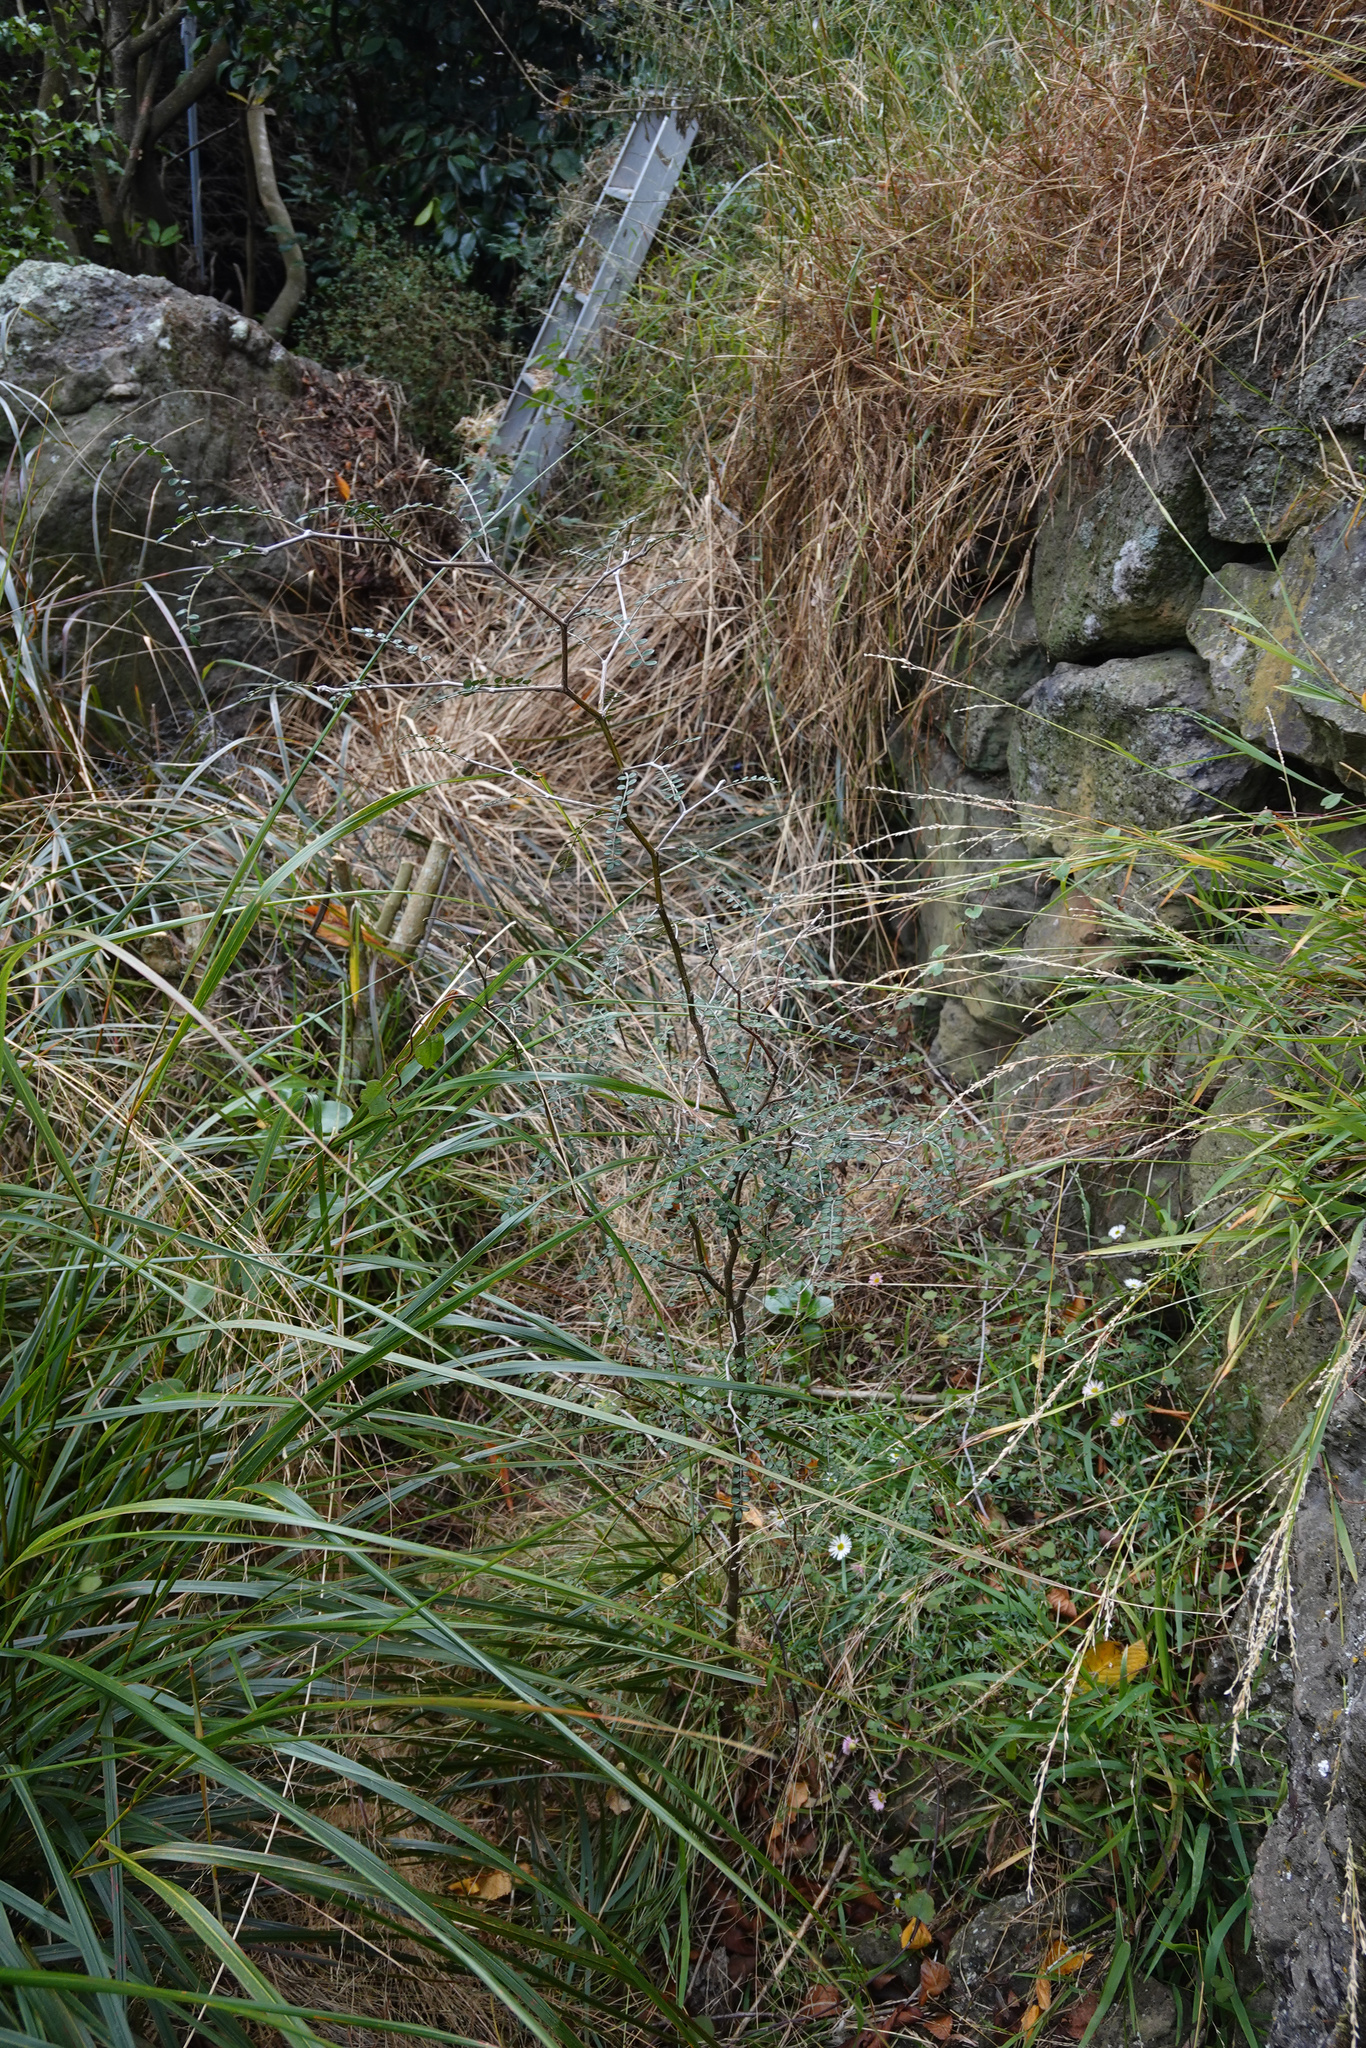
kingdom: Plantae
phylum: Tracheophyta
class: Magnoliopsida
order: Fabales
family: Fabaceae
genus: Sophora
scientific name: Sophora microphylla
